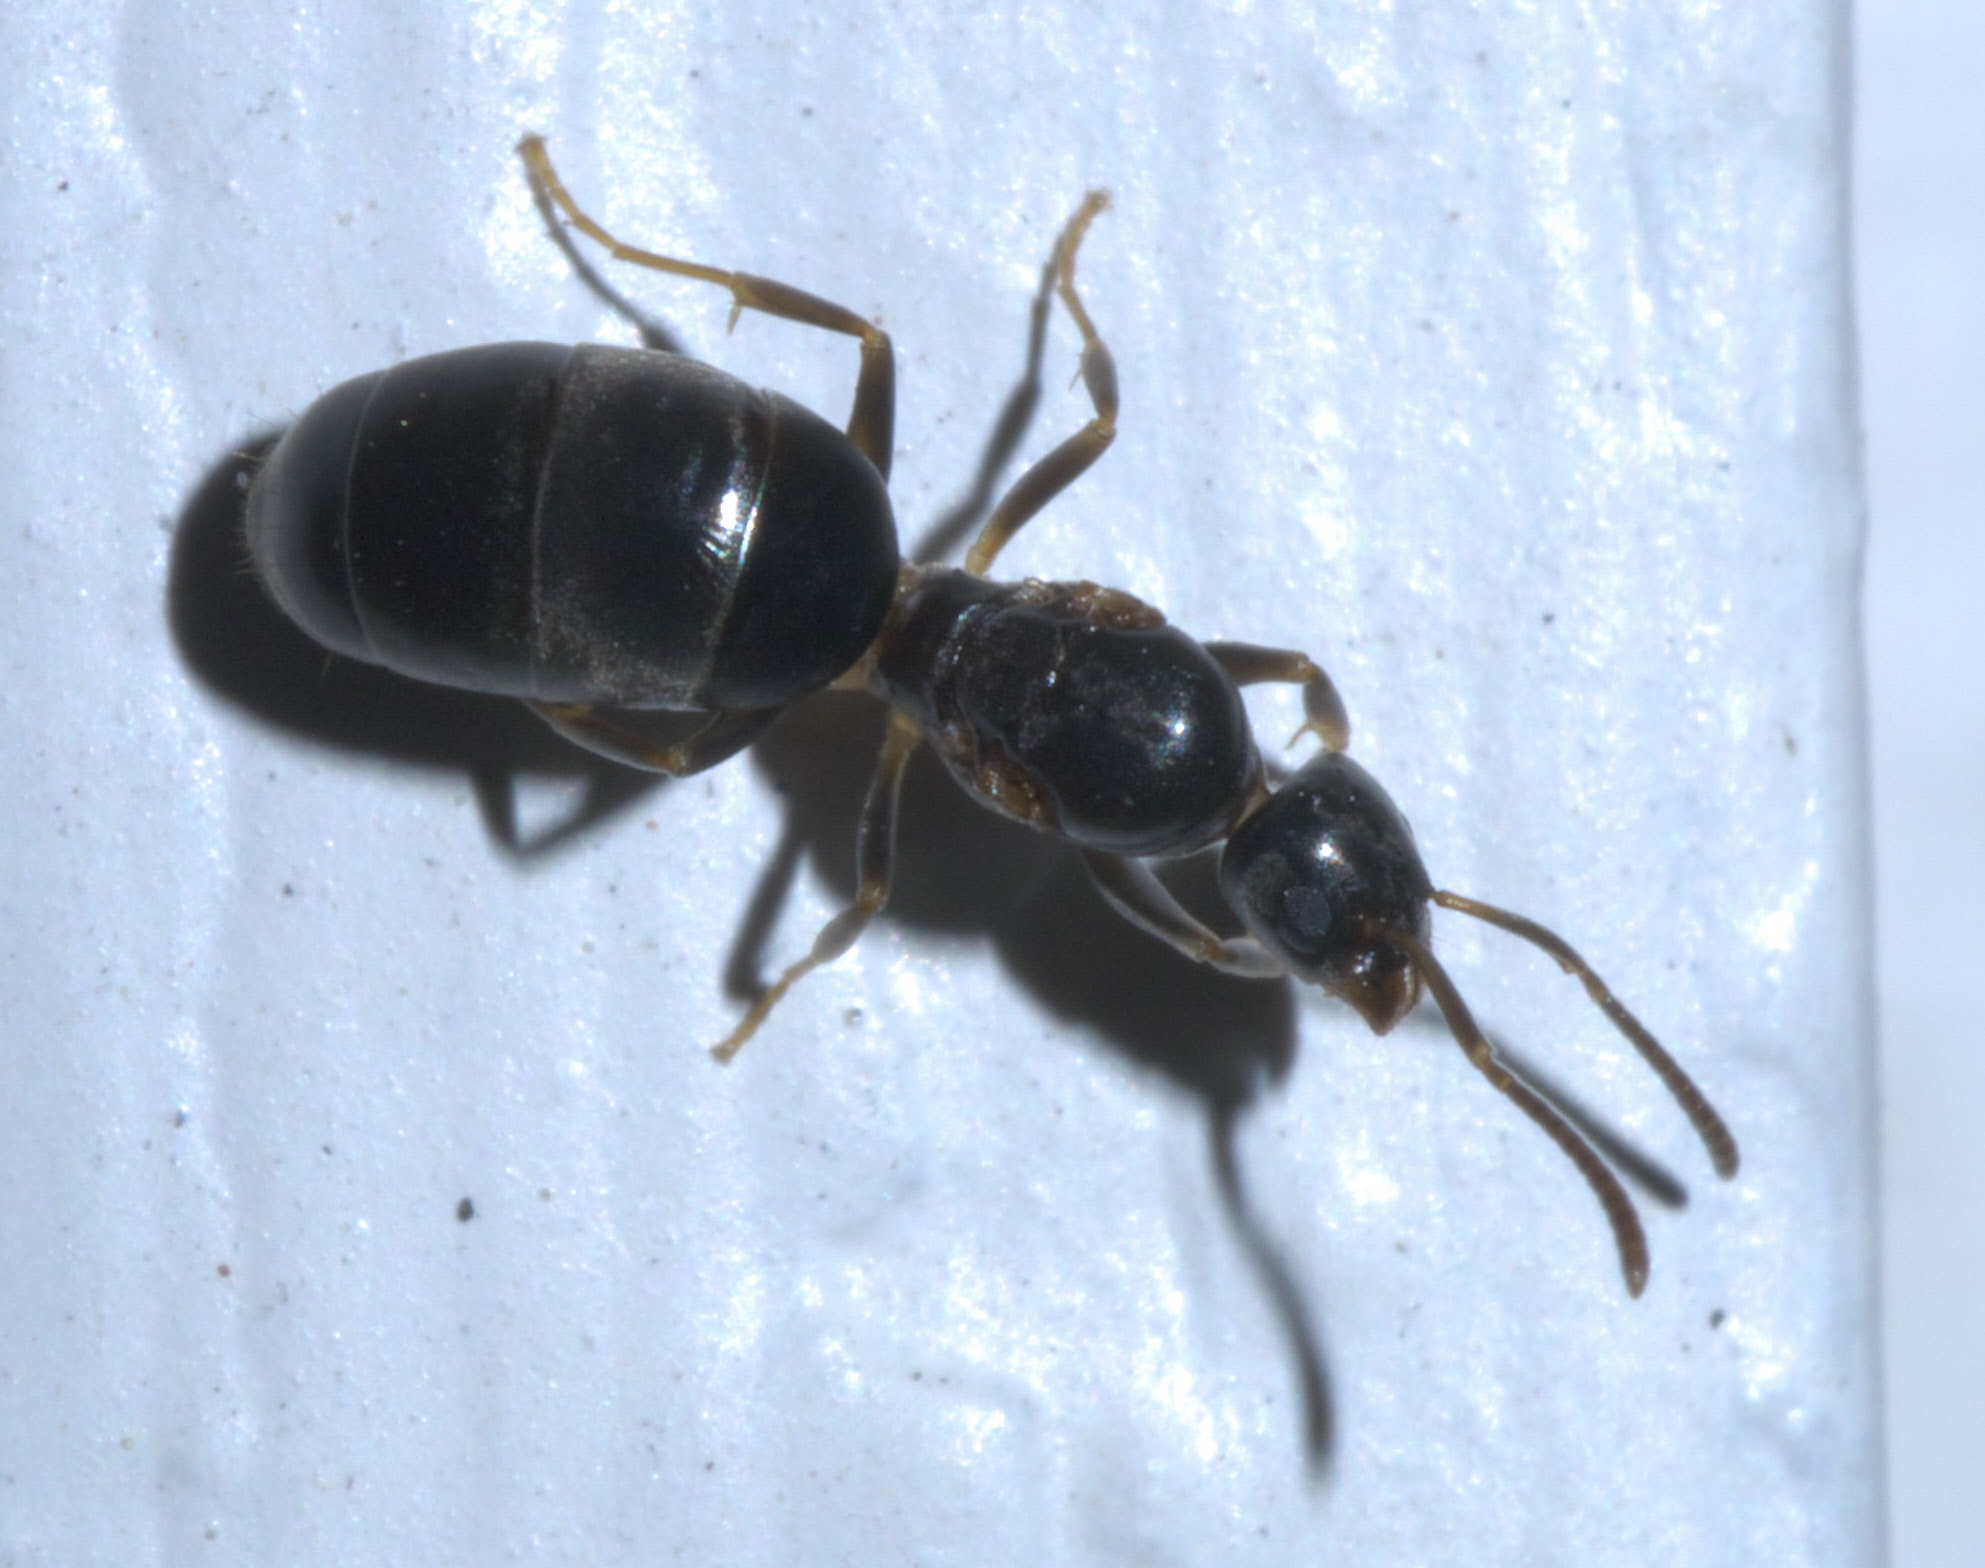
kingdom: Animalia
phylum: Arthropoda
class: Insecta
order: Hymenoptera
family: Formicidae
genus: Tapinoma
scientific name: Tapinoma sessile
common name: Odorous house ant
